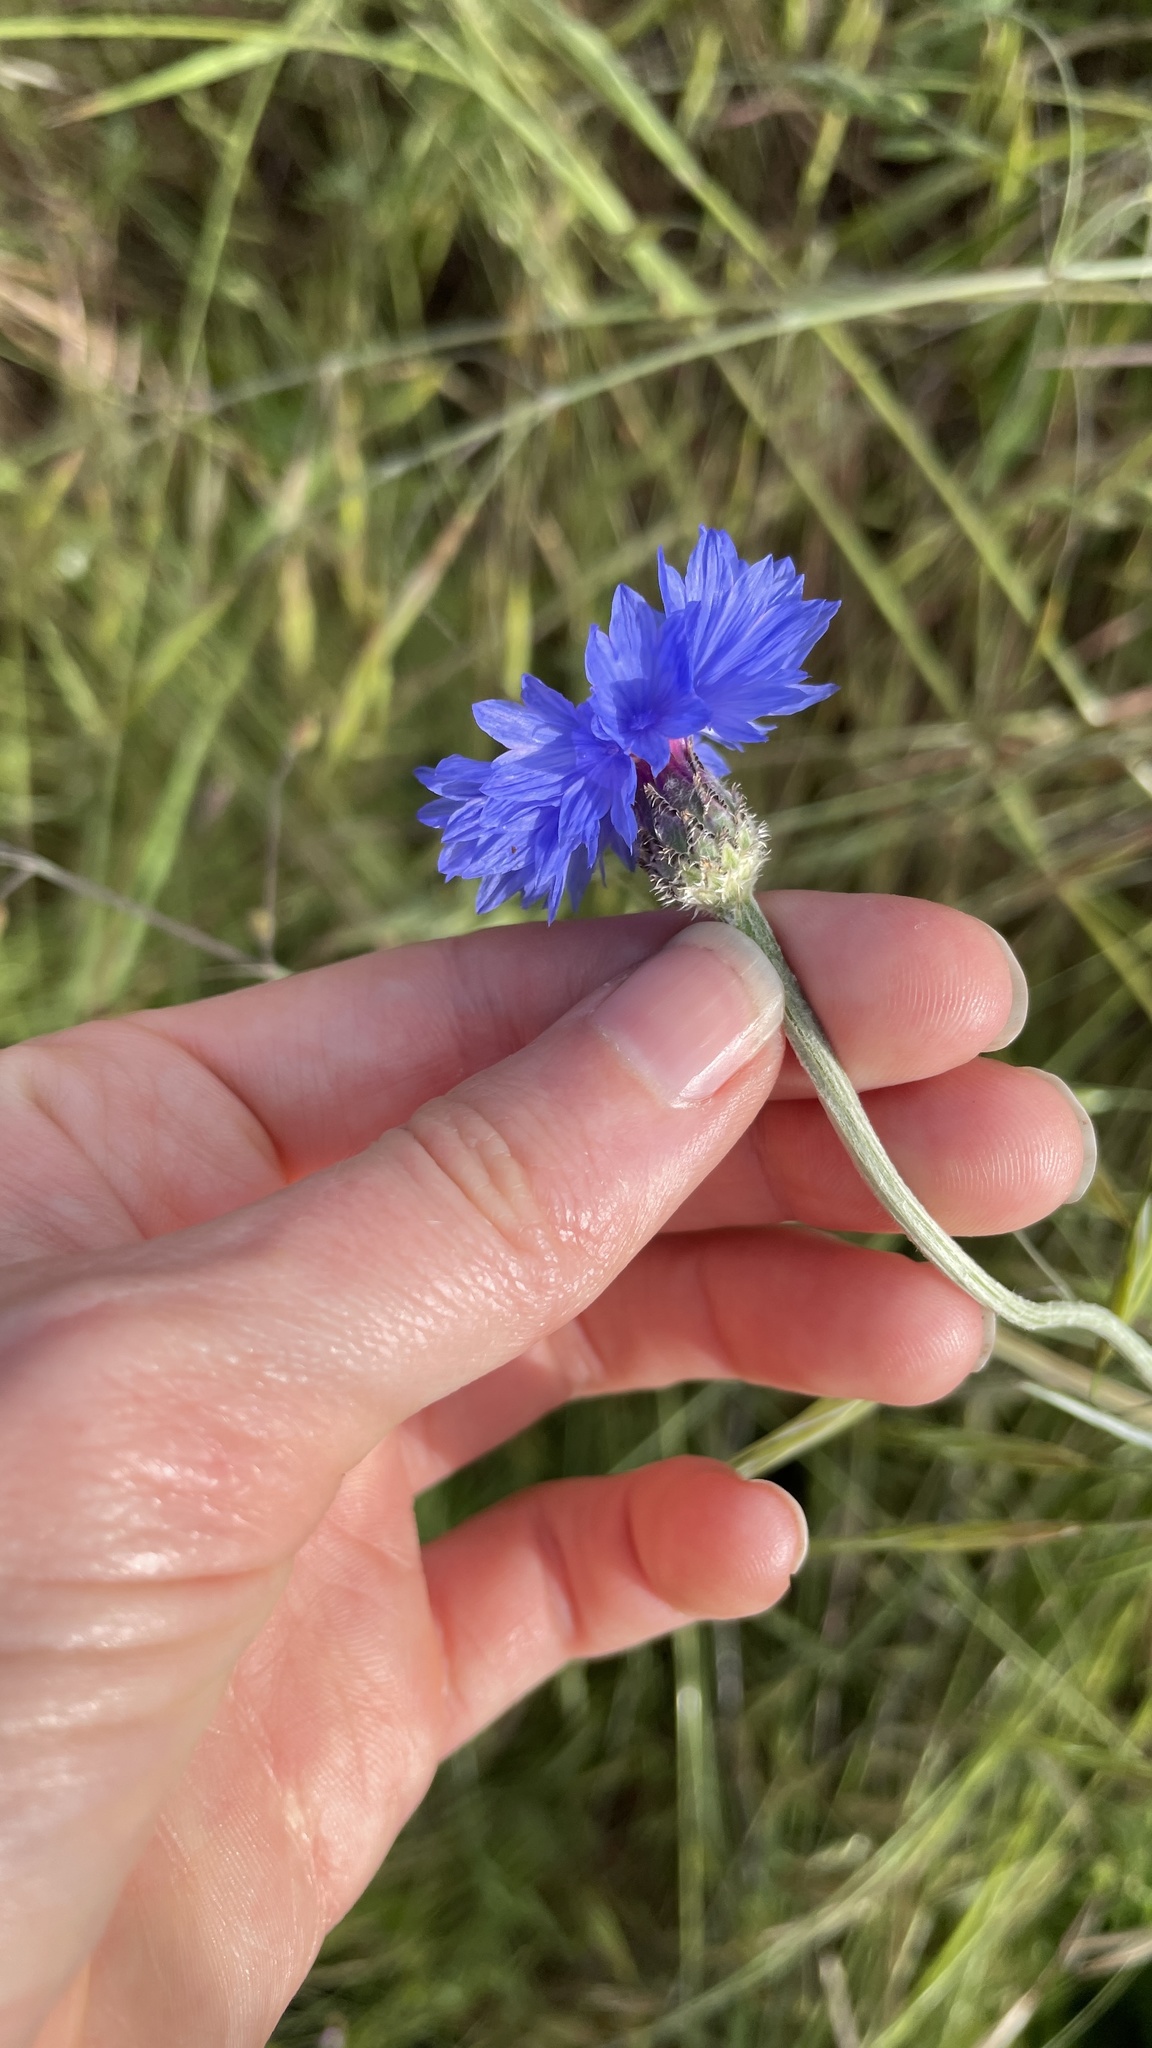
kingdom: Plantae
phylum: Tracheophyta
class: Magnoliopsida
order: Asterales
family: Asteraceae
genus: Centaurea
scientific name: Centaurea cyanus
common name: Cornflower
